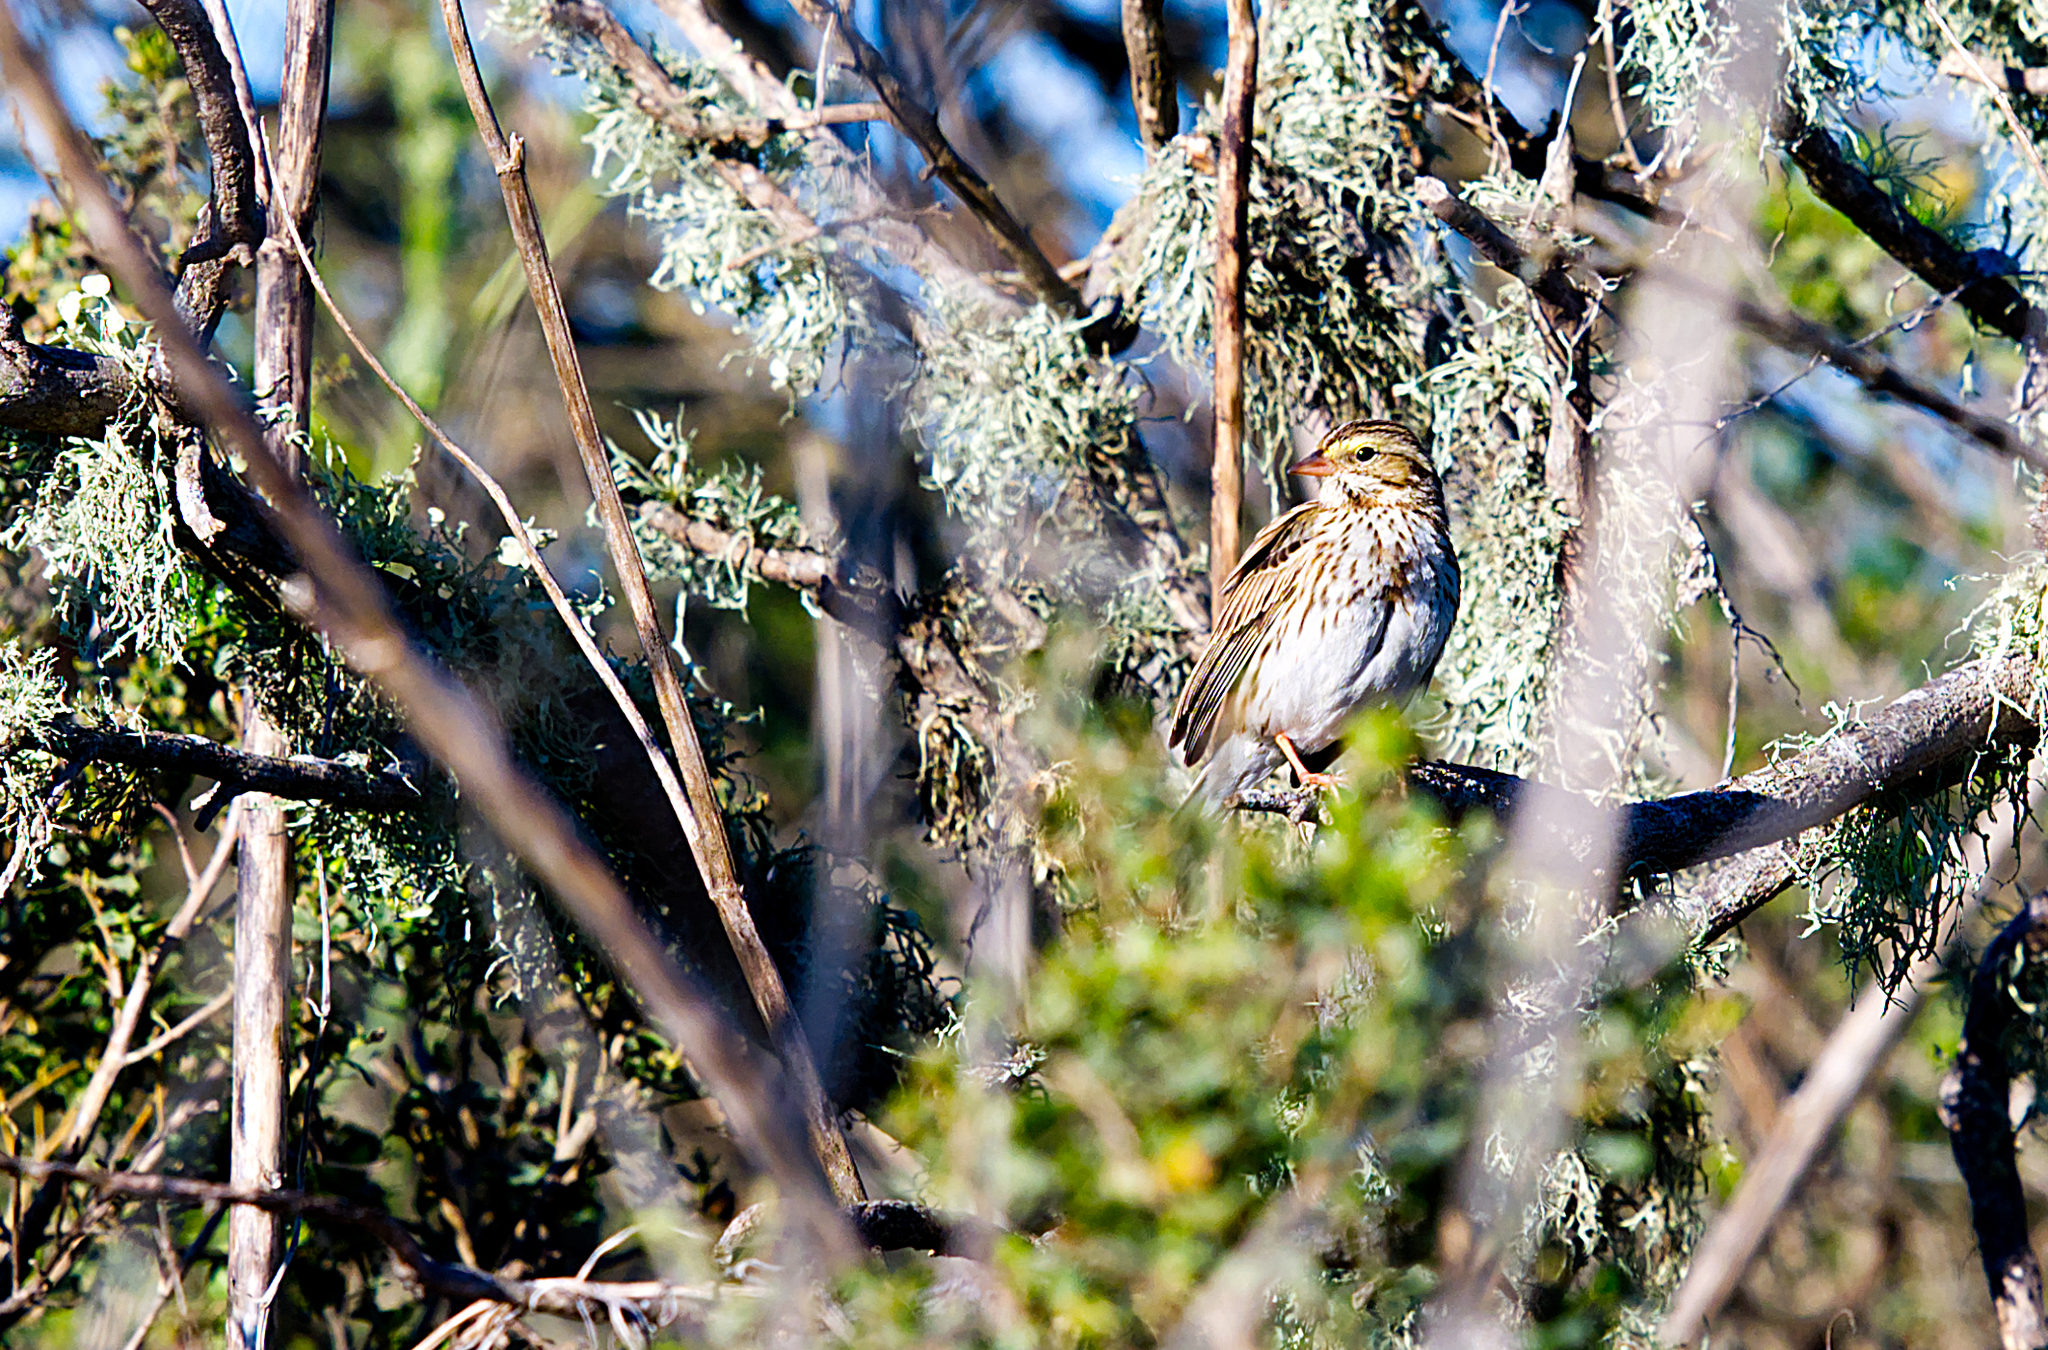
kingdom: Animalia
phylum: Chordata
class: Aves
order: Passeriformes
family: Passerellidae
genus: Passerculus
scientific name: Passerculus sandwichensis
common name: Savannah sparrow
